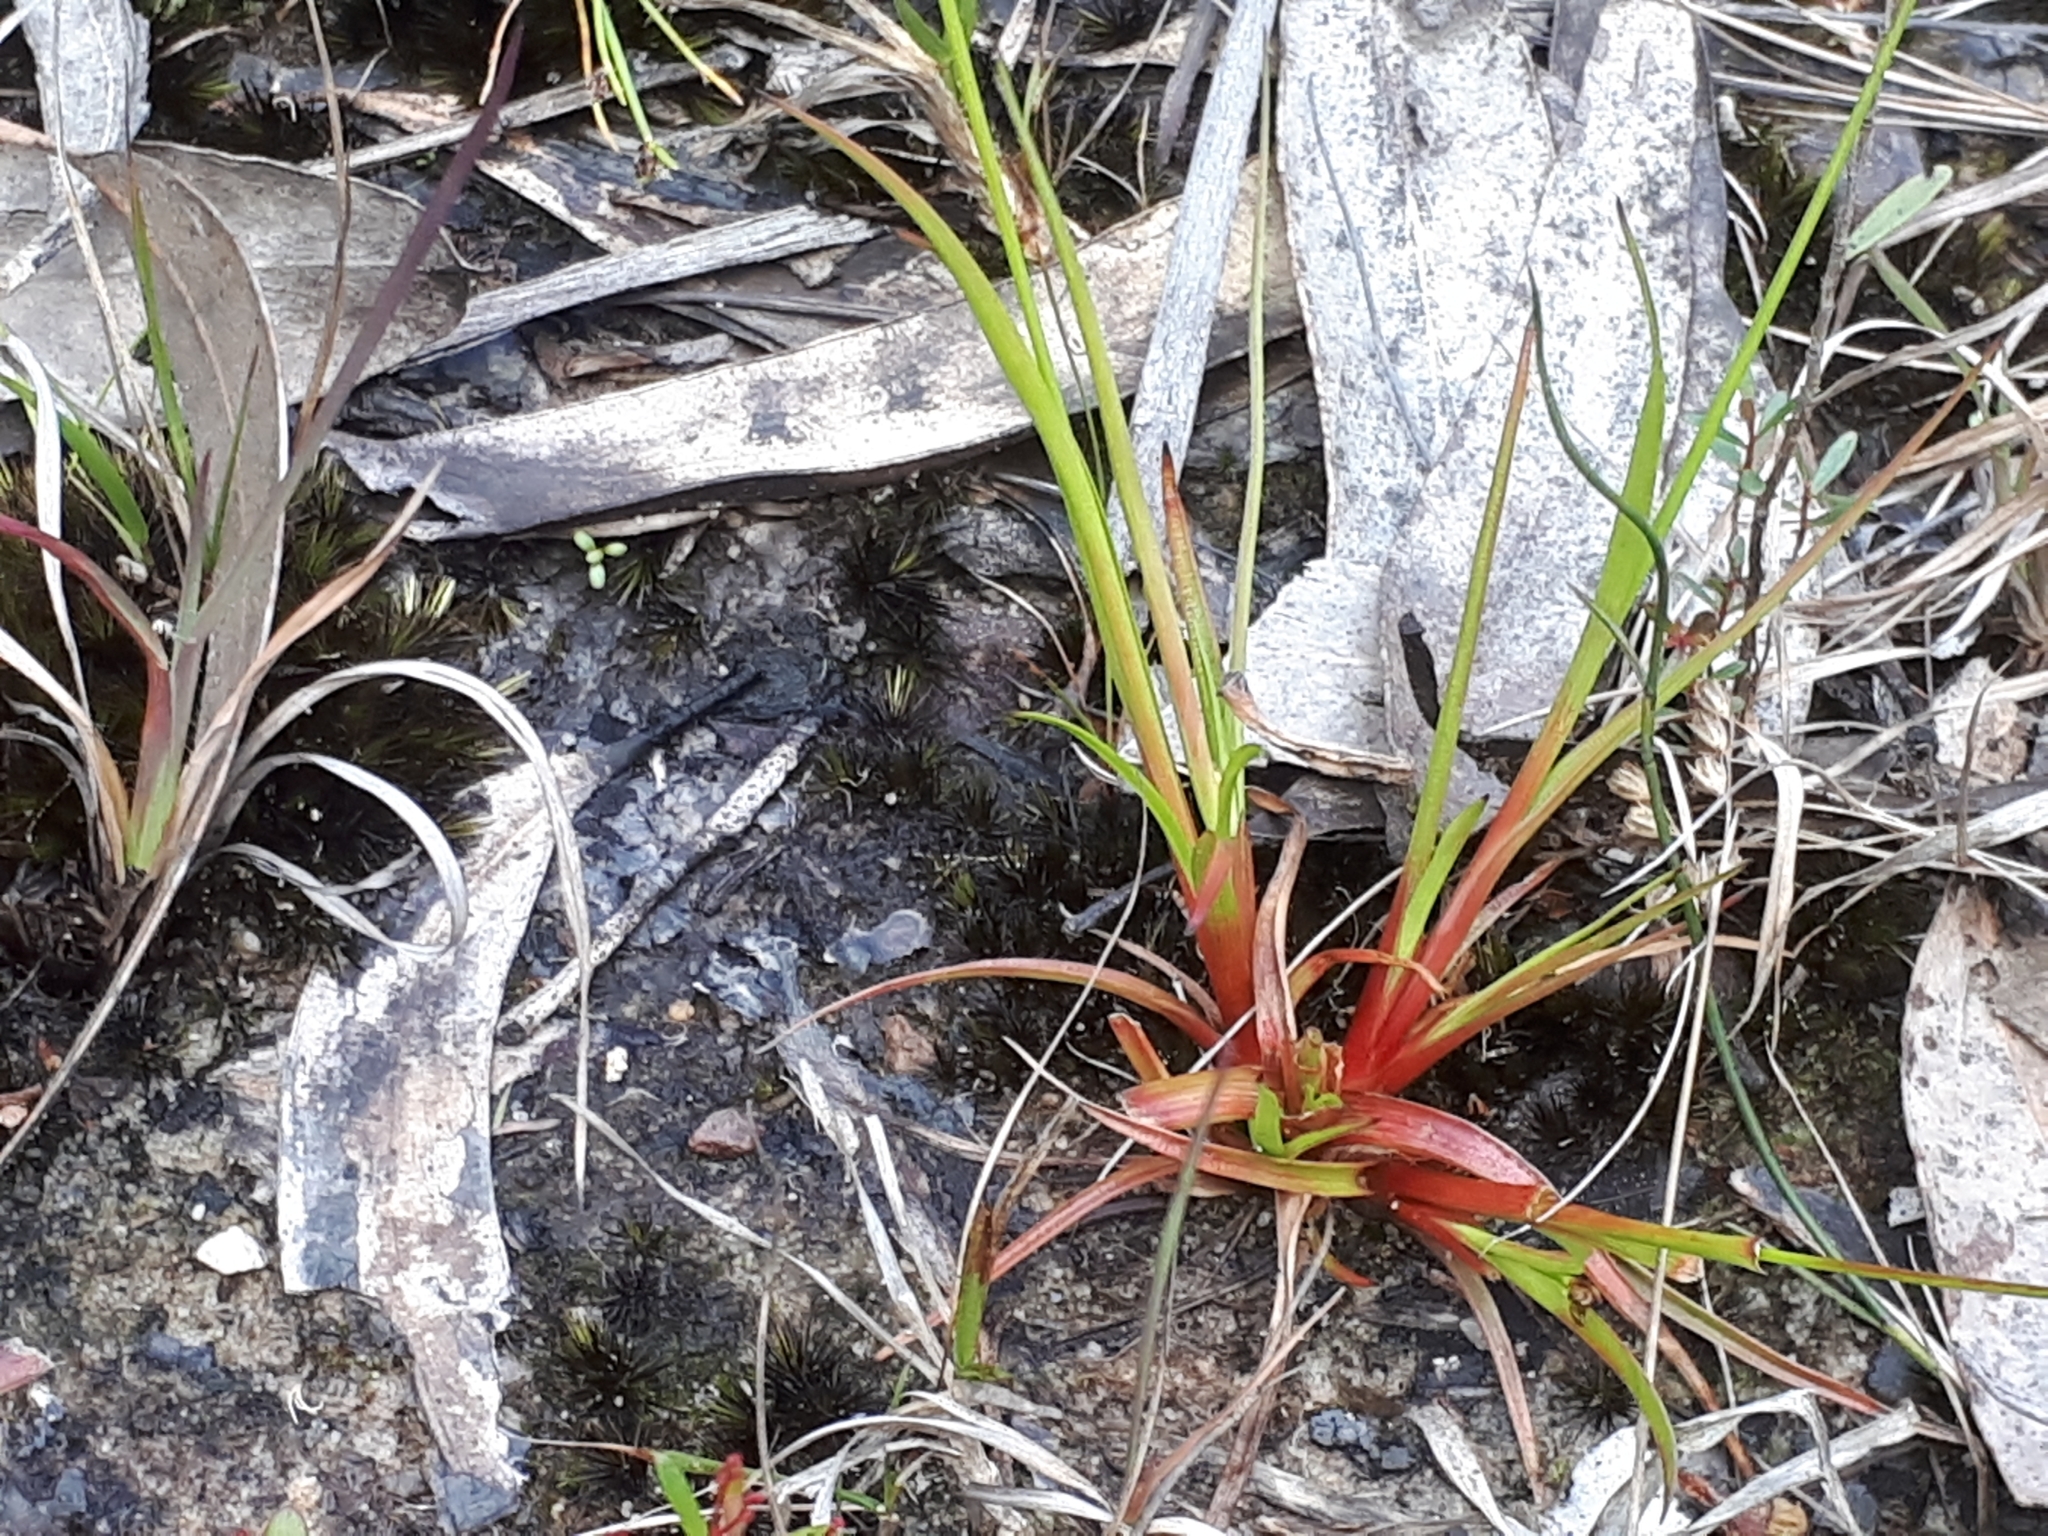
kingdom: Plantae
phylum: Tracheophyta
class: Liliopsida
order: Poales
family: Juncaceae
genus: Juncus
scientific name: Juncus planifolius
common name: Broadleaf rush
